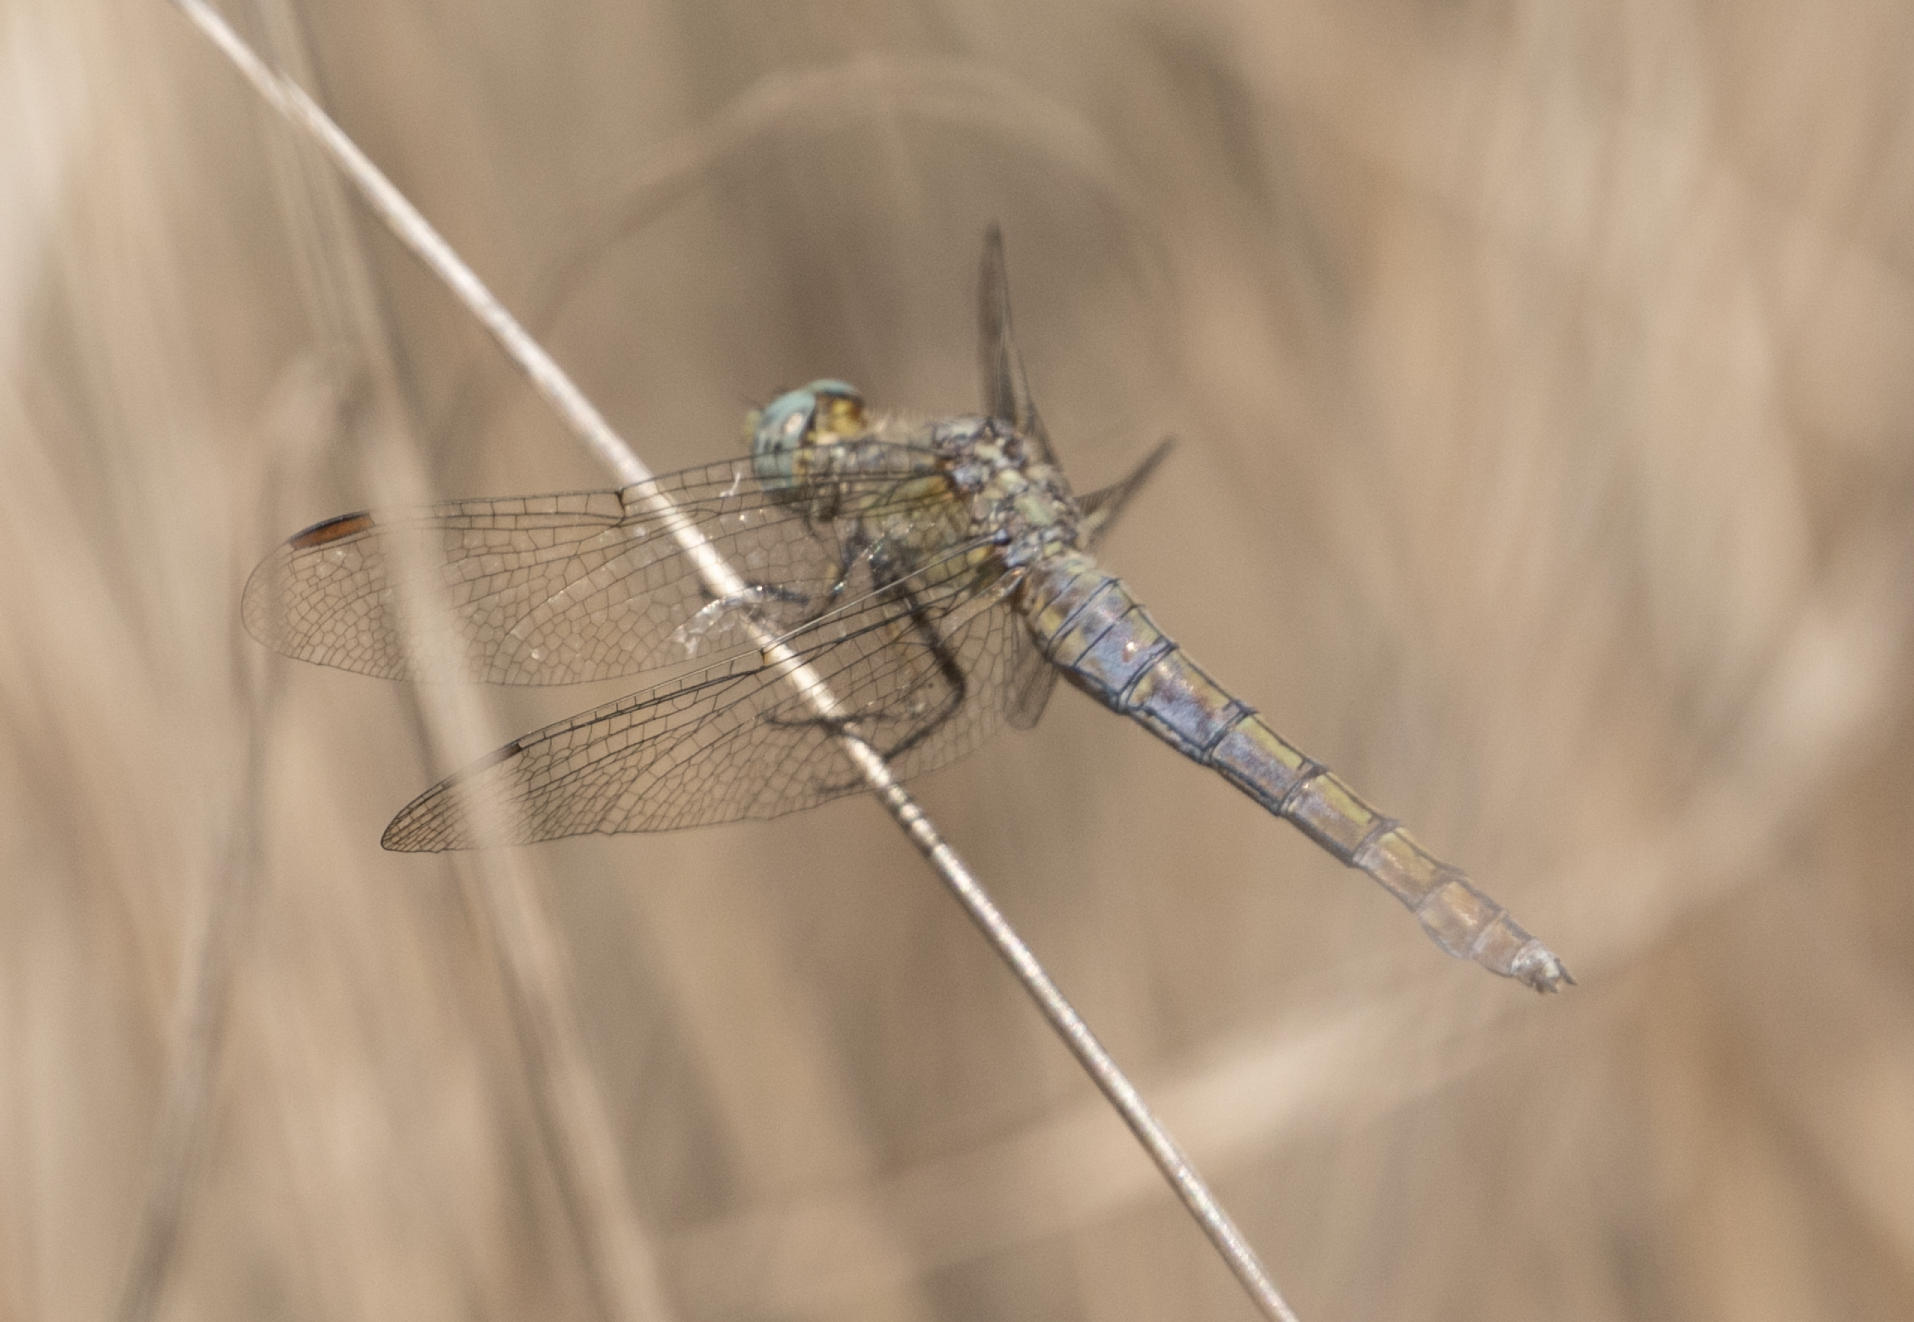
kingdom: Animalia
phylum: Arthropoda
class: Insecta
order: Odonata
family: Libellulidae
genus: Orthetrum
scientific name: Orthetrum coerulescens
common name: Keeled skimmer
